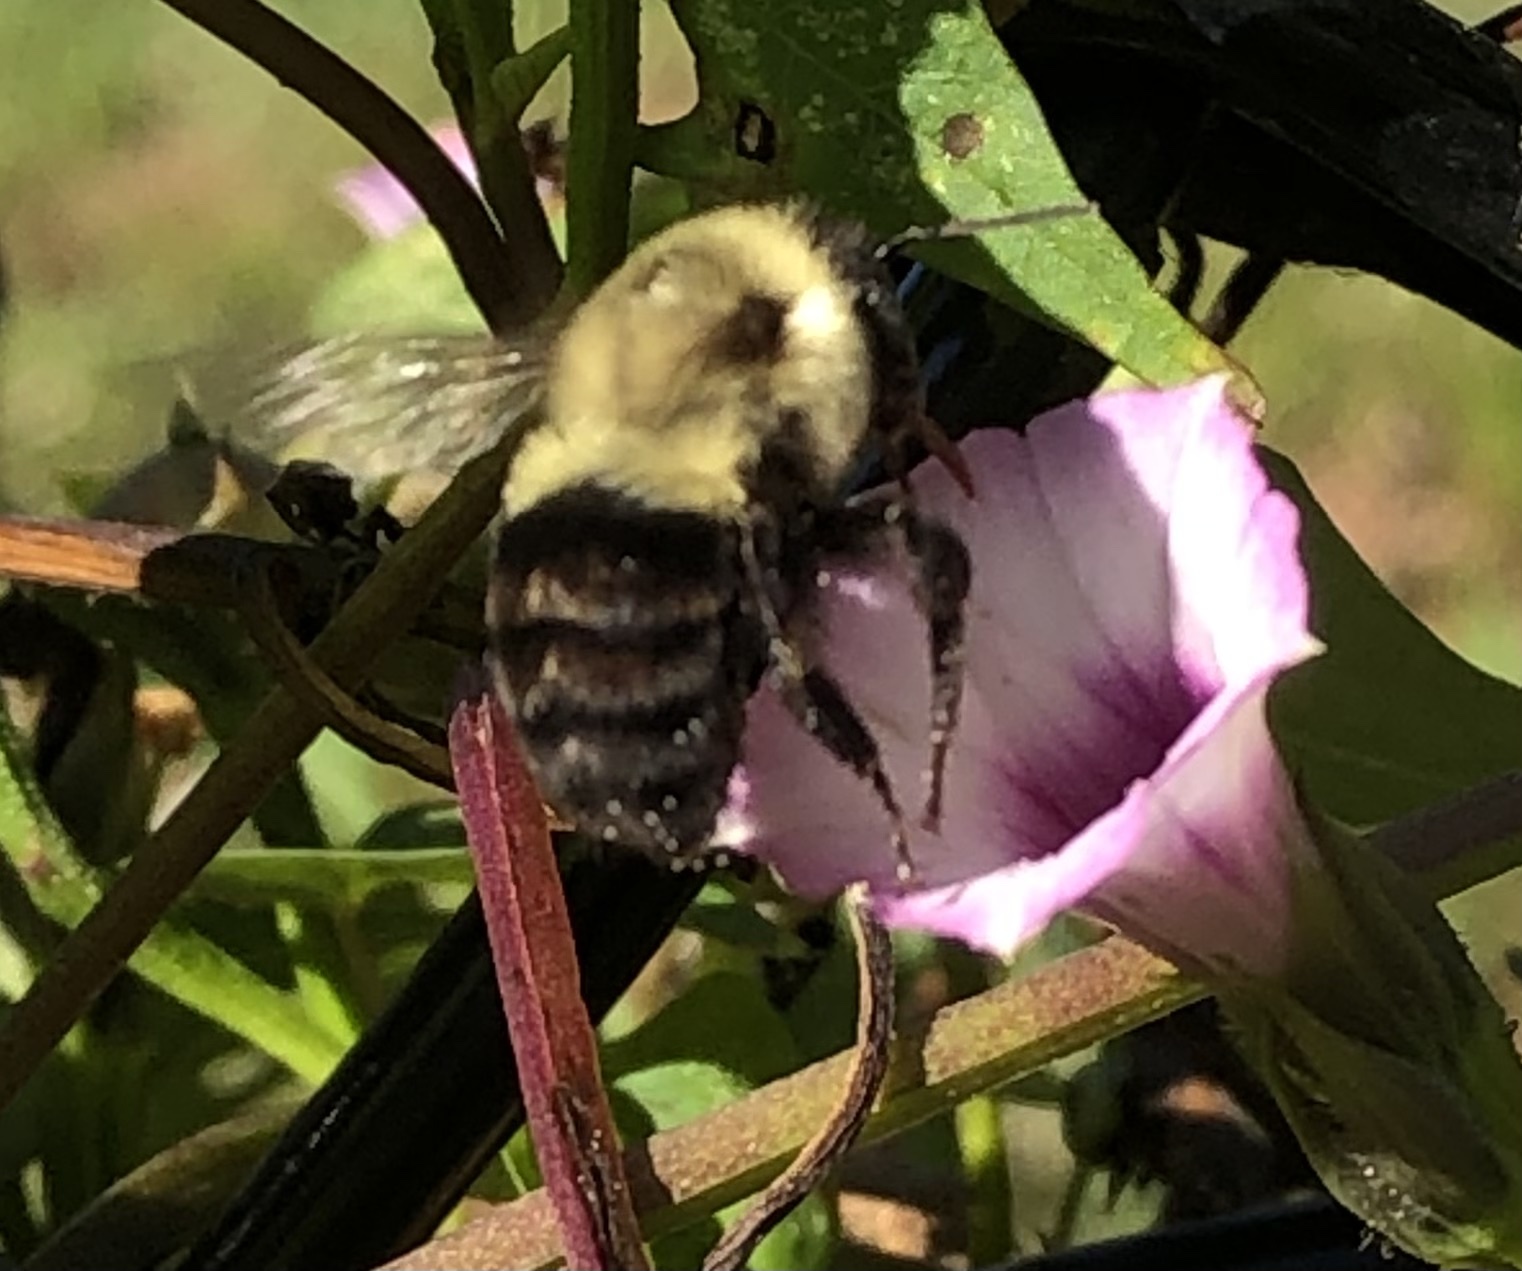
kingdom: Animalia
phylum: Arthropoda
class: Insecta
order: Hymenoptera
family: Apidae
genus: Bombus
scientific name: Bombus impatiens
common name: Common eastern bumble bee
